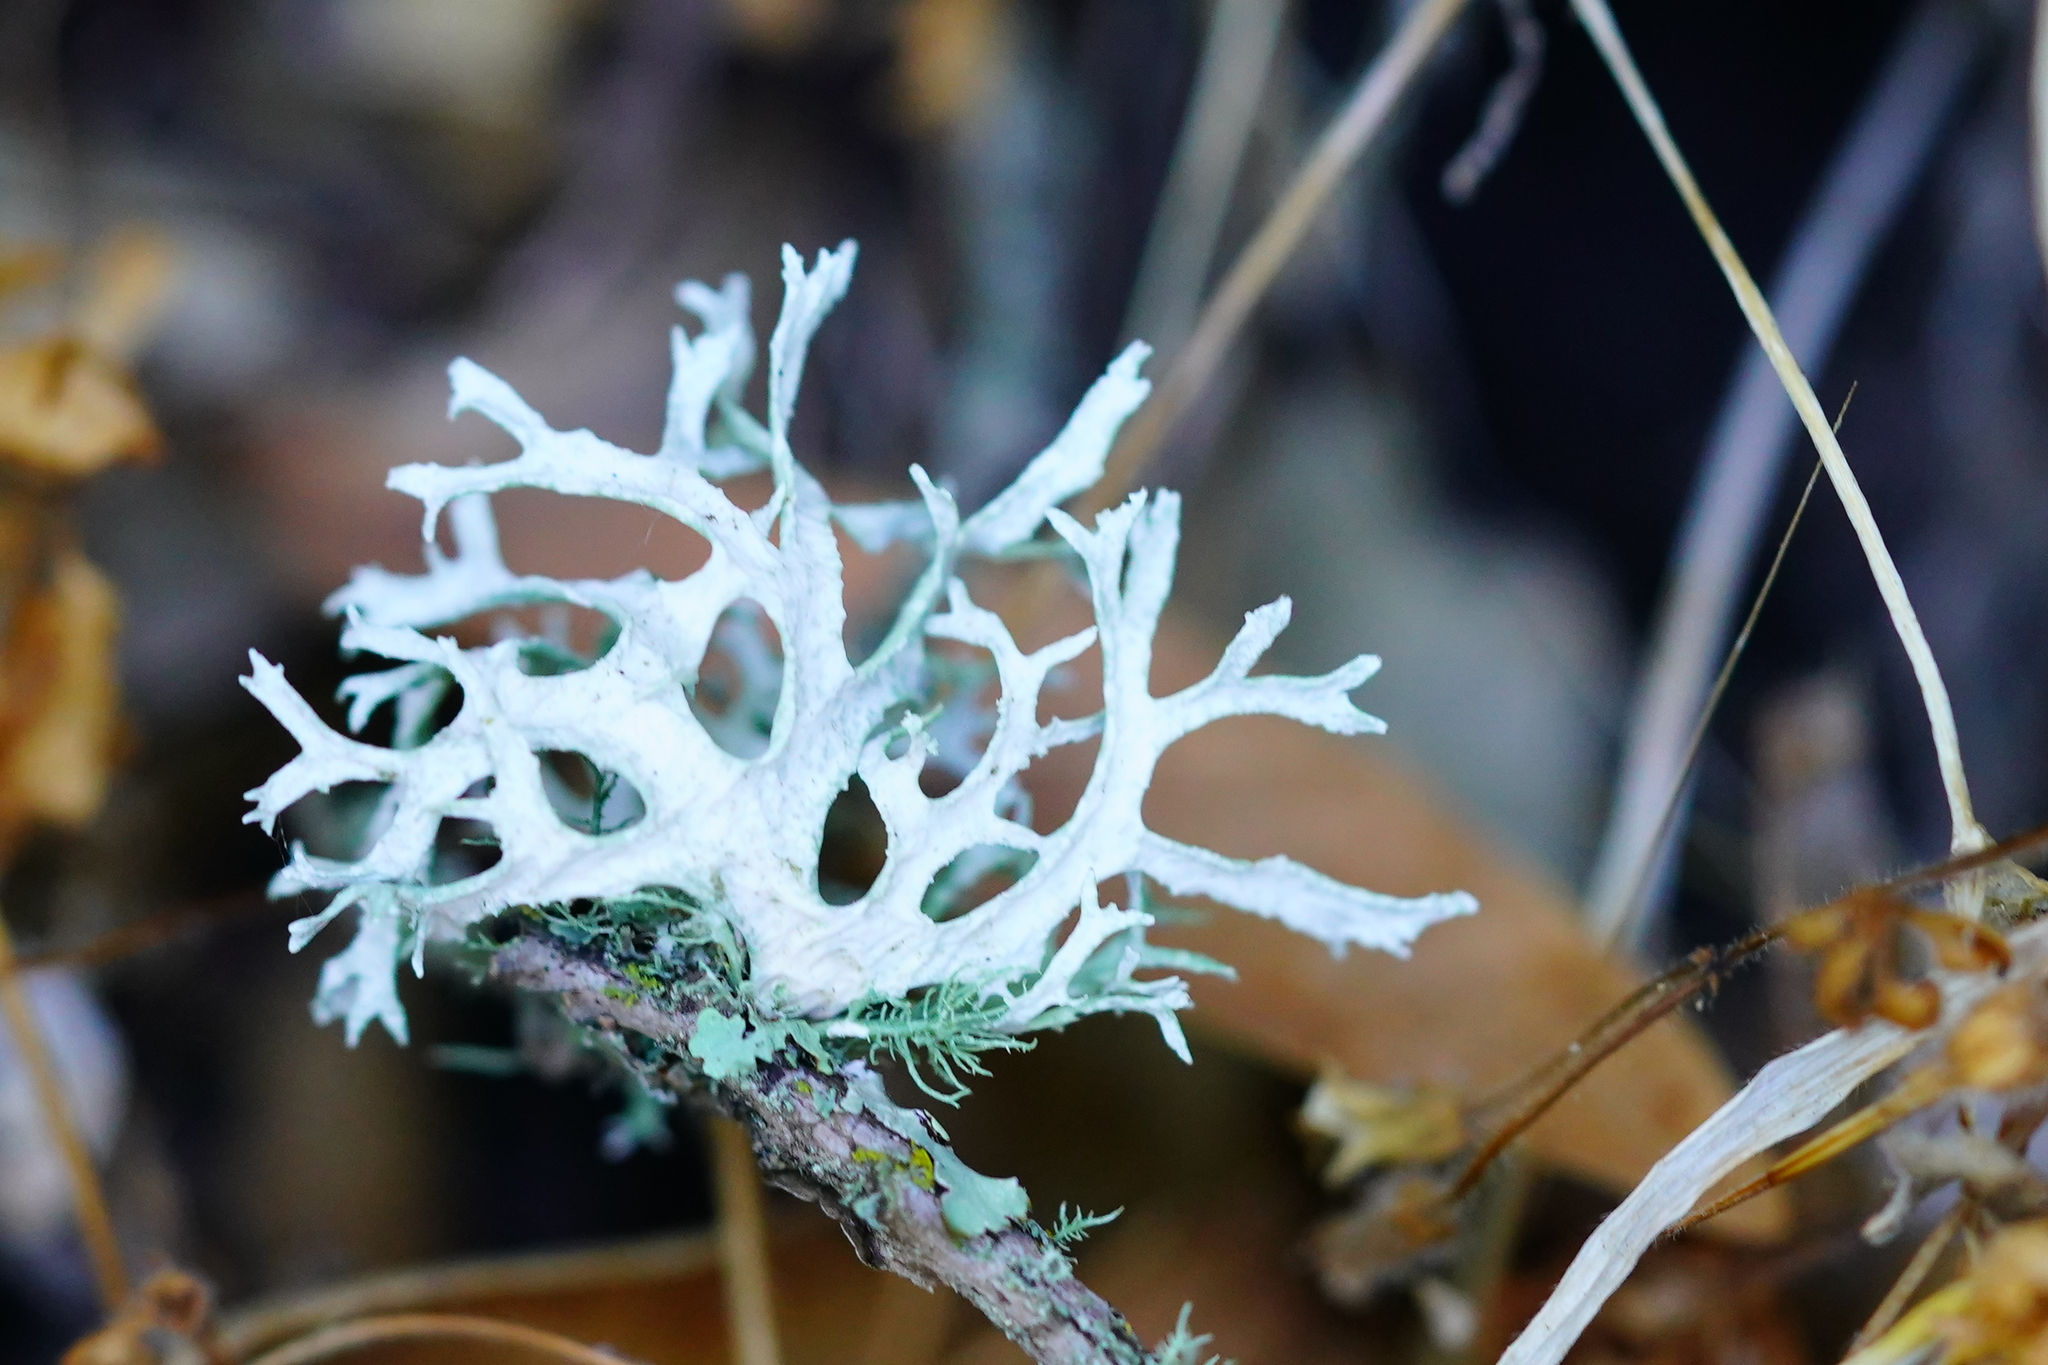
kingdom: Fungi
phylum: Ascomycota
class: Lecanoromycetes
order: Lecanorales
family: Parmeliaceae
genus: Evernia
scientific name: Evernia prunastri
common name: Oak moss
